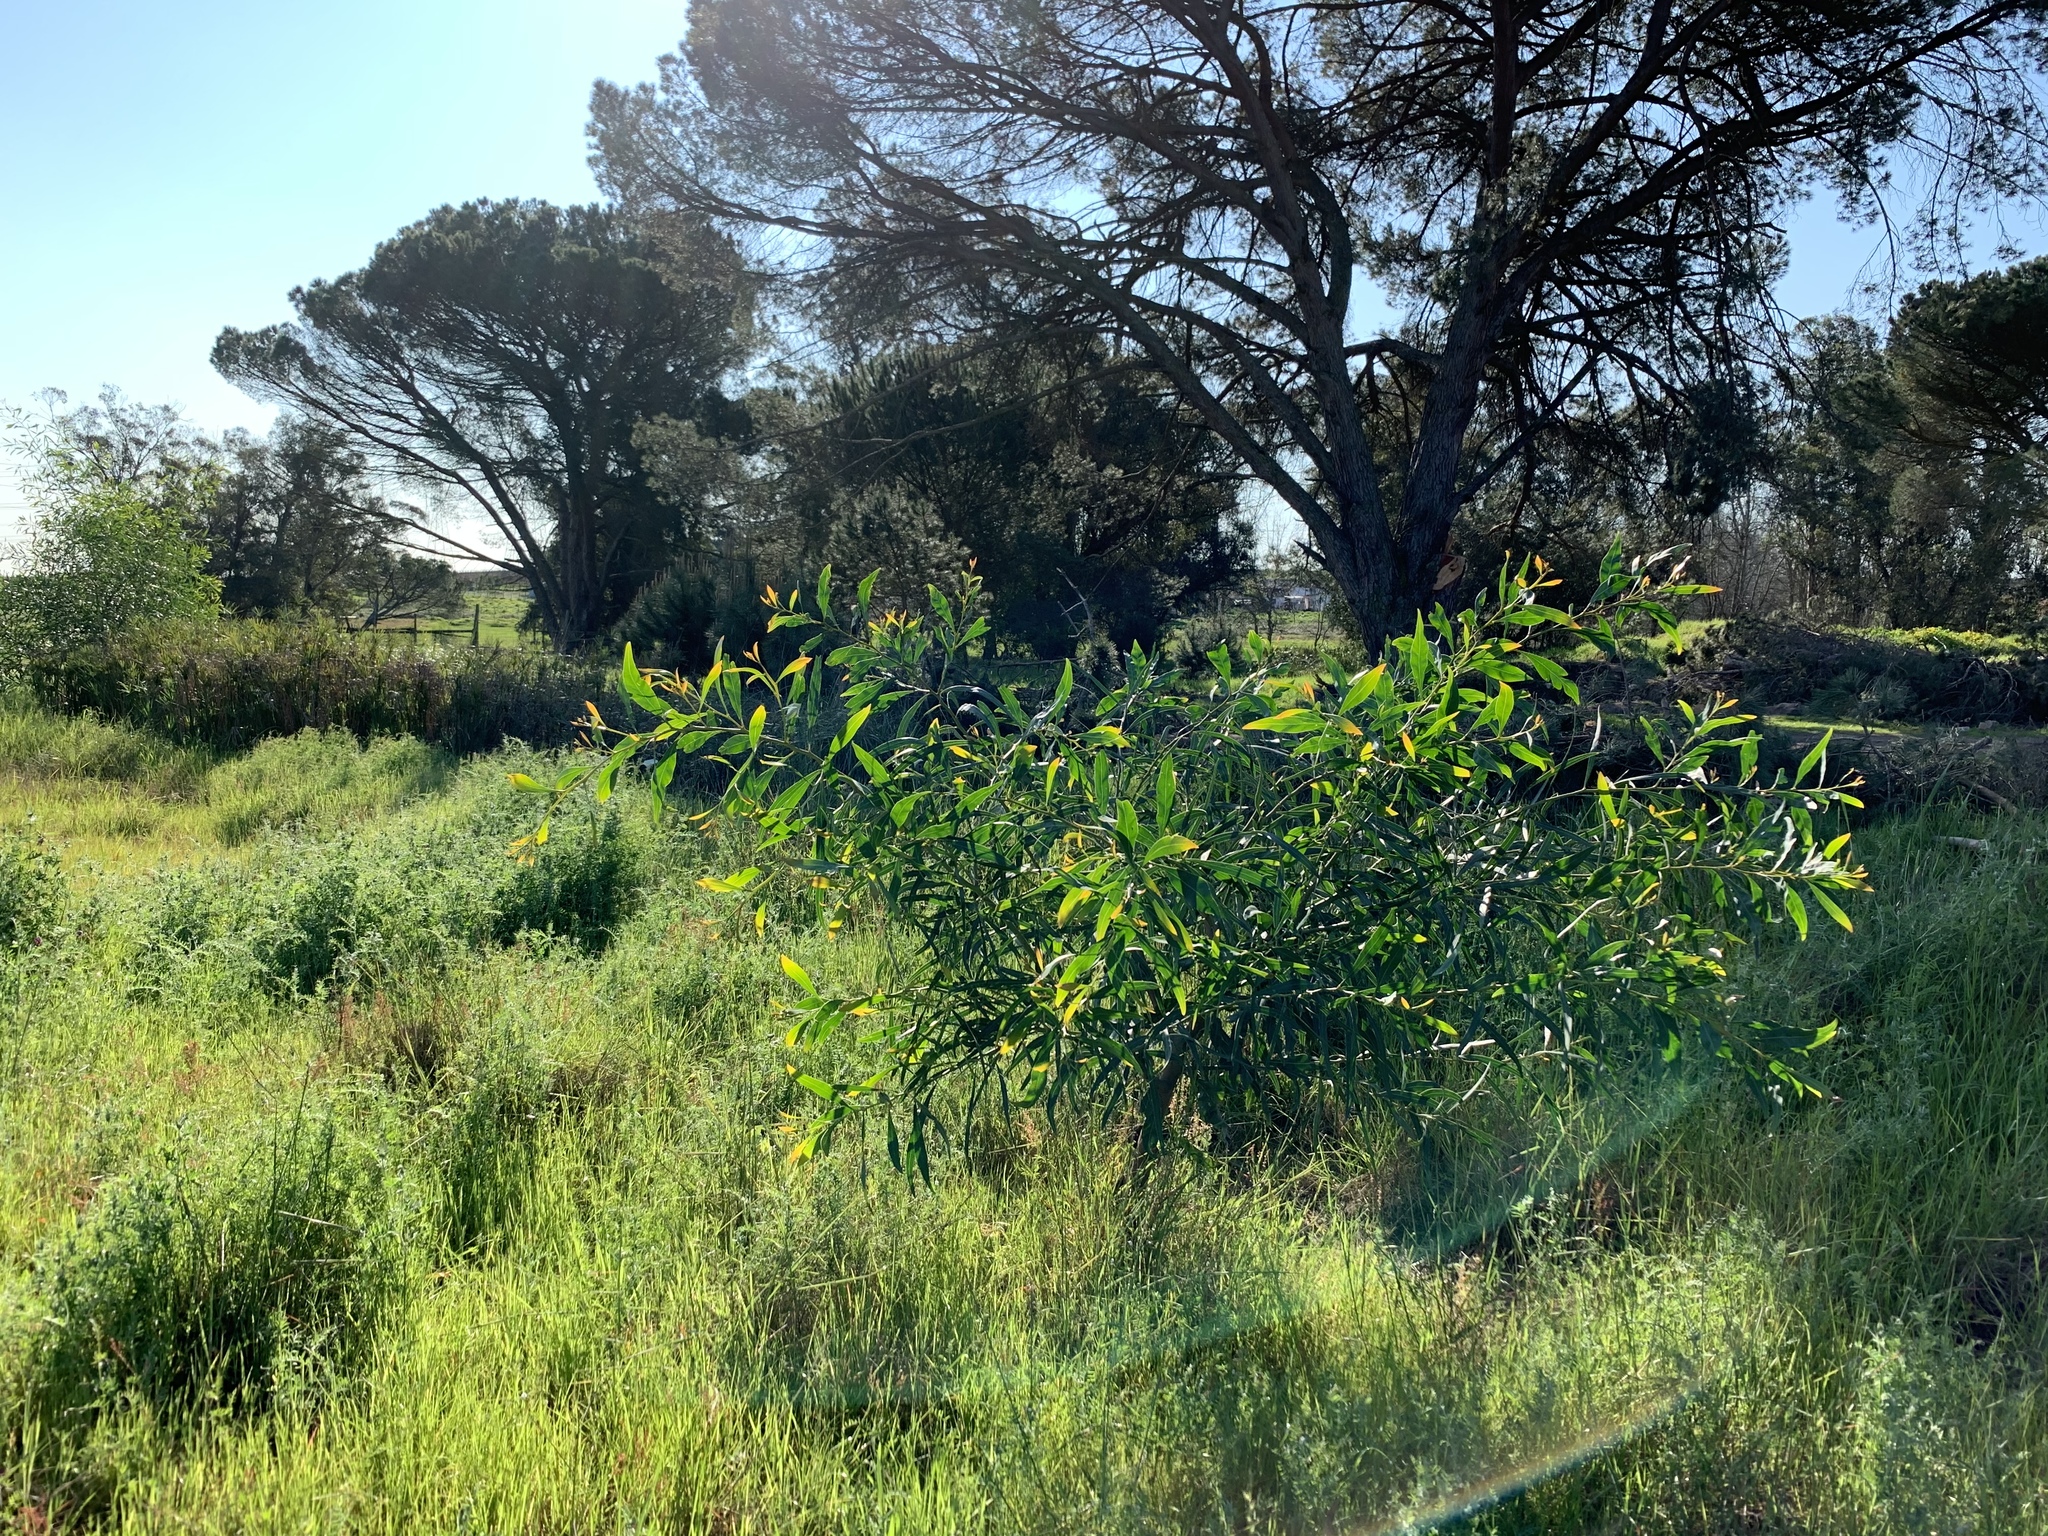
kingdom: Plantae
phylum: Tracheophyta
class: Magnoliopsida
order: Fabales
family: Fabaceae
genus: Acacia
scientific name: Acacia saligna
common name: Orange wattle
